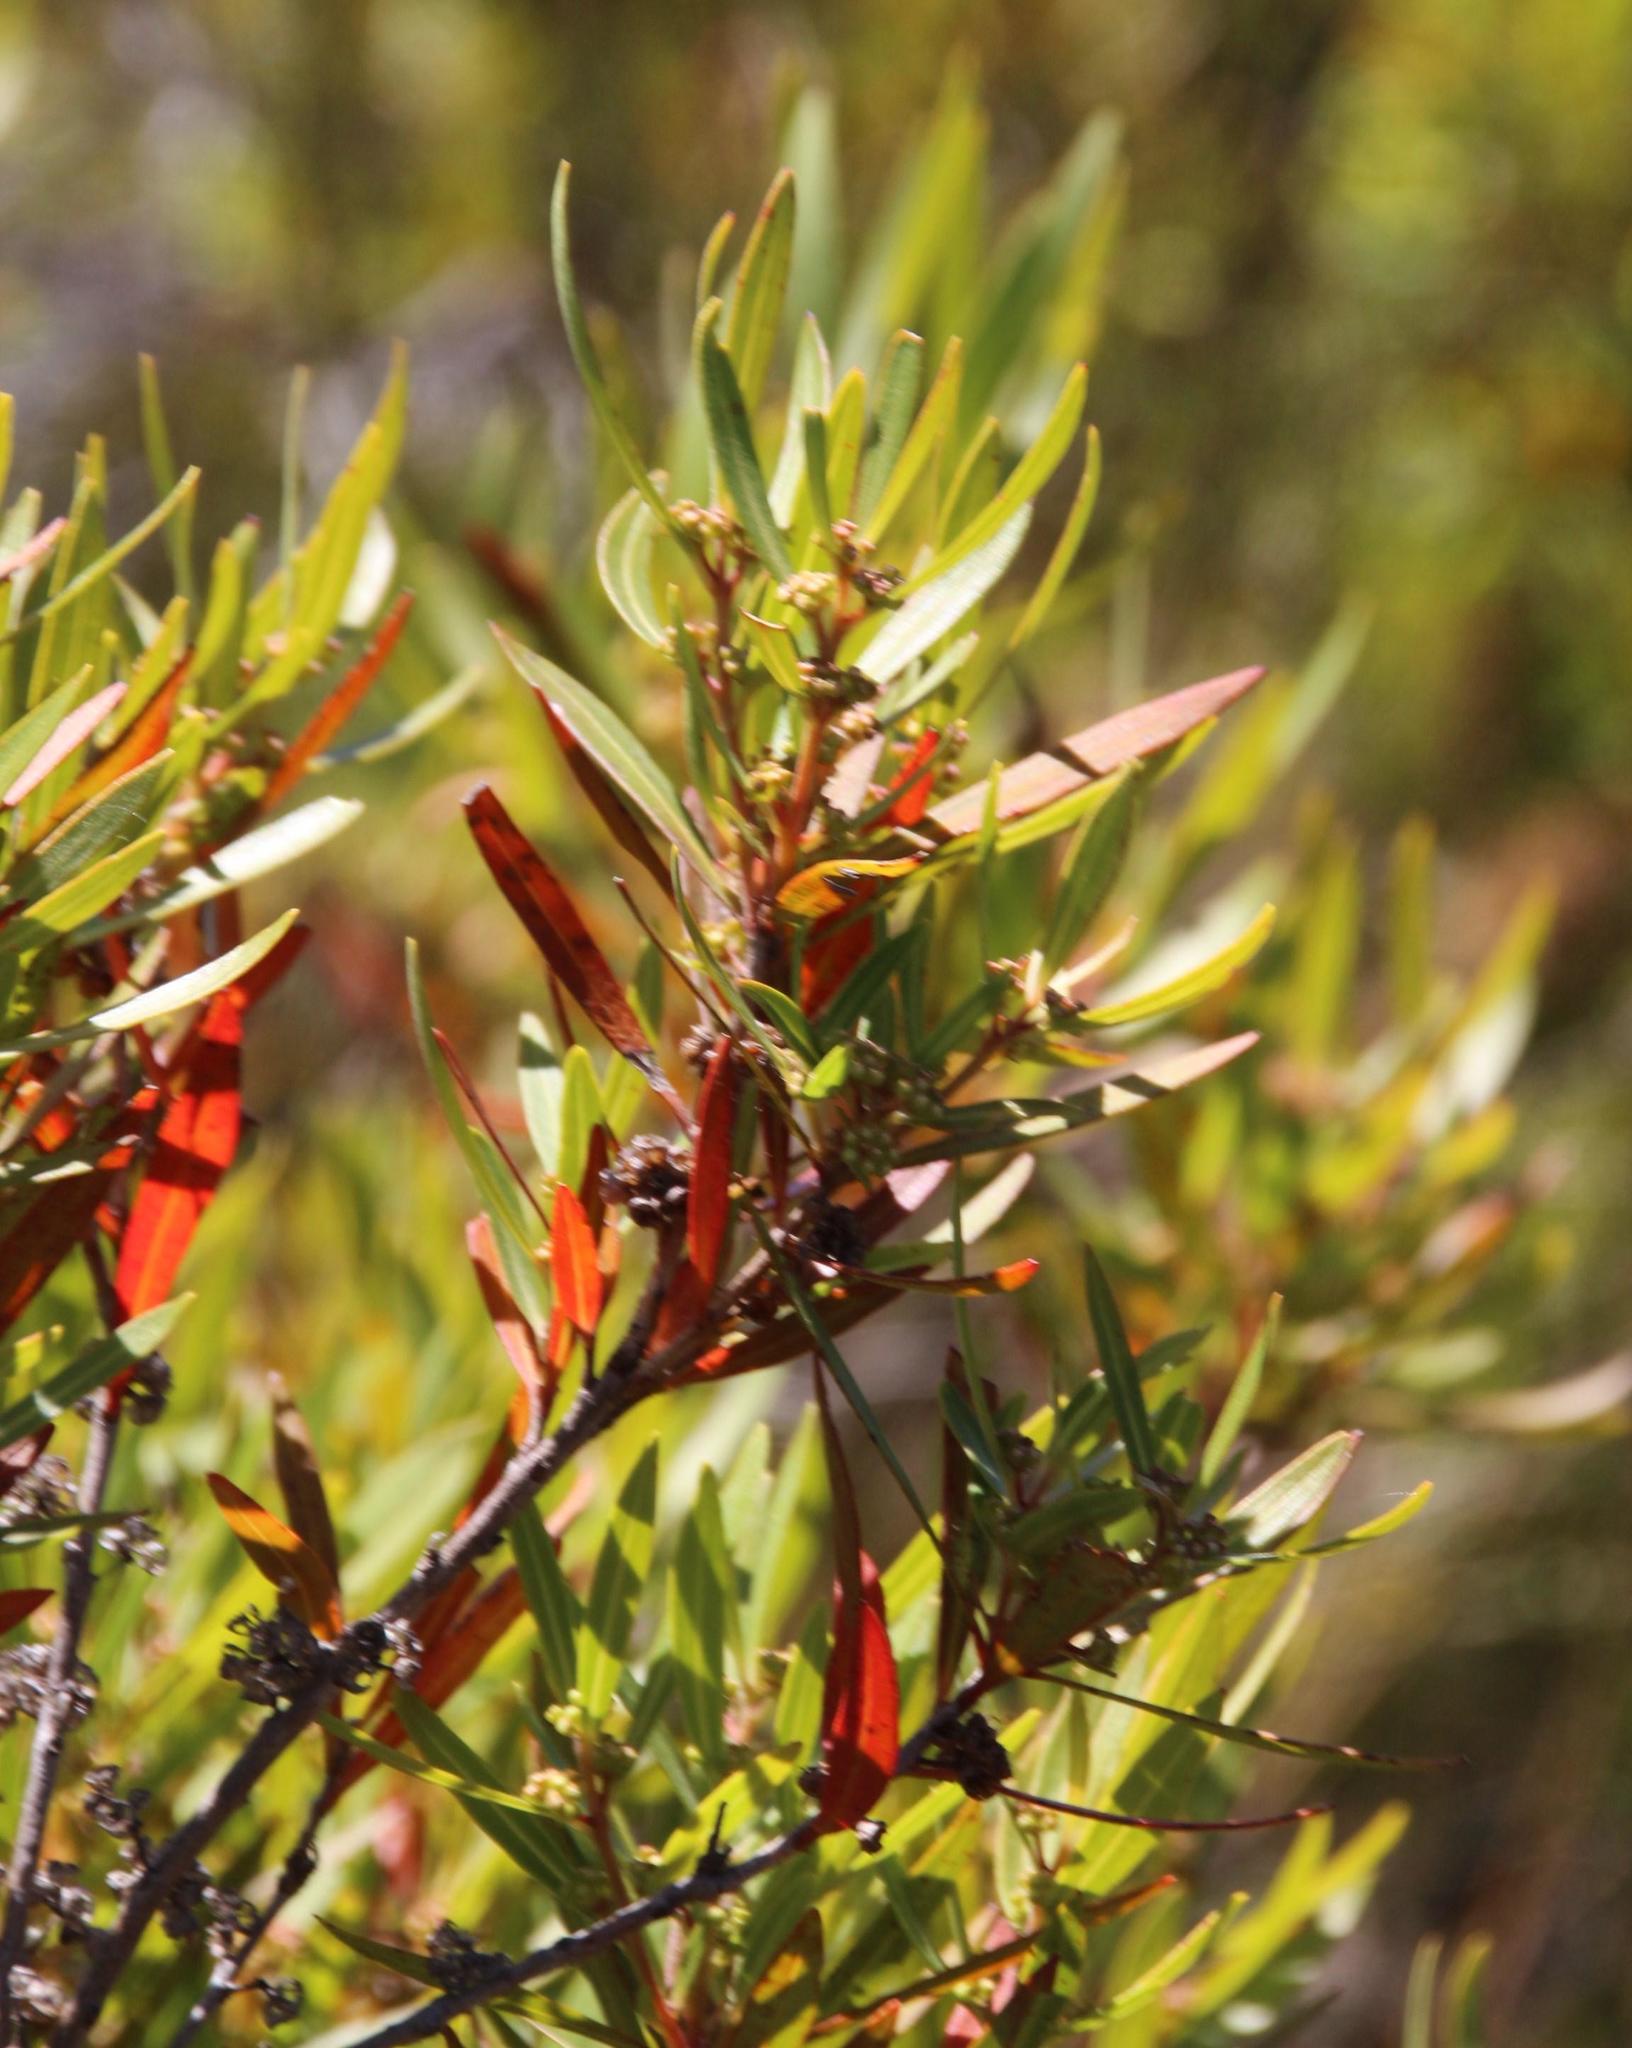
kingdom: Plantae
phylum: Tracheophyta
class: Magnoliopsida
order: Myrtales
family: Myrtaceae
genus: Callistemon
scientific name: Callistemon lanceolatus
